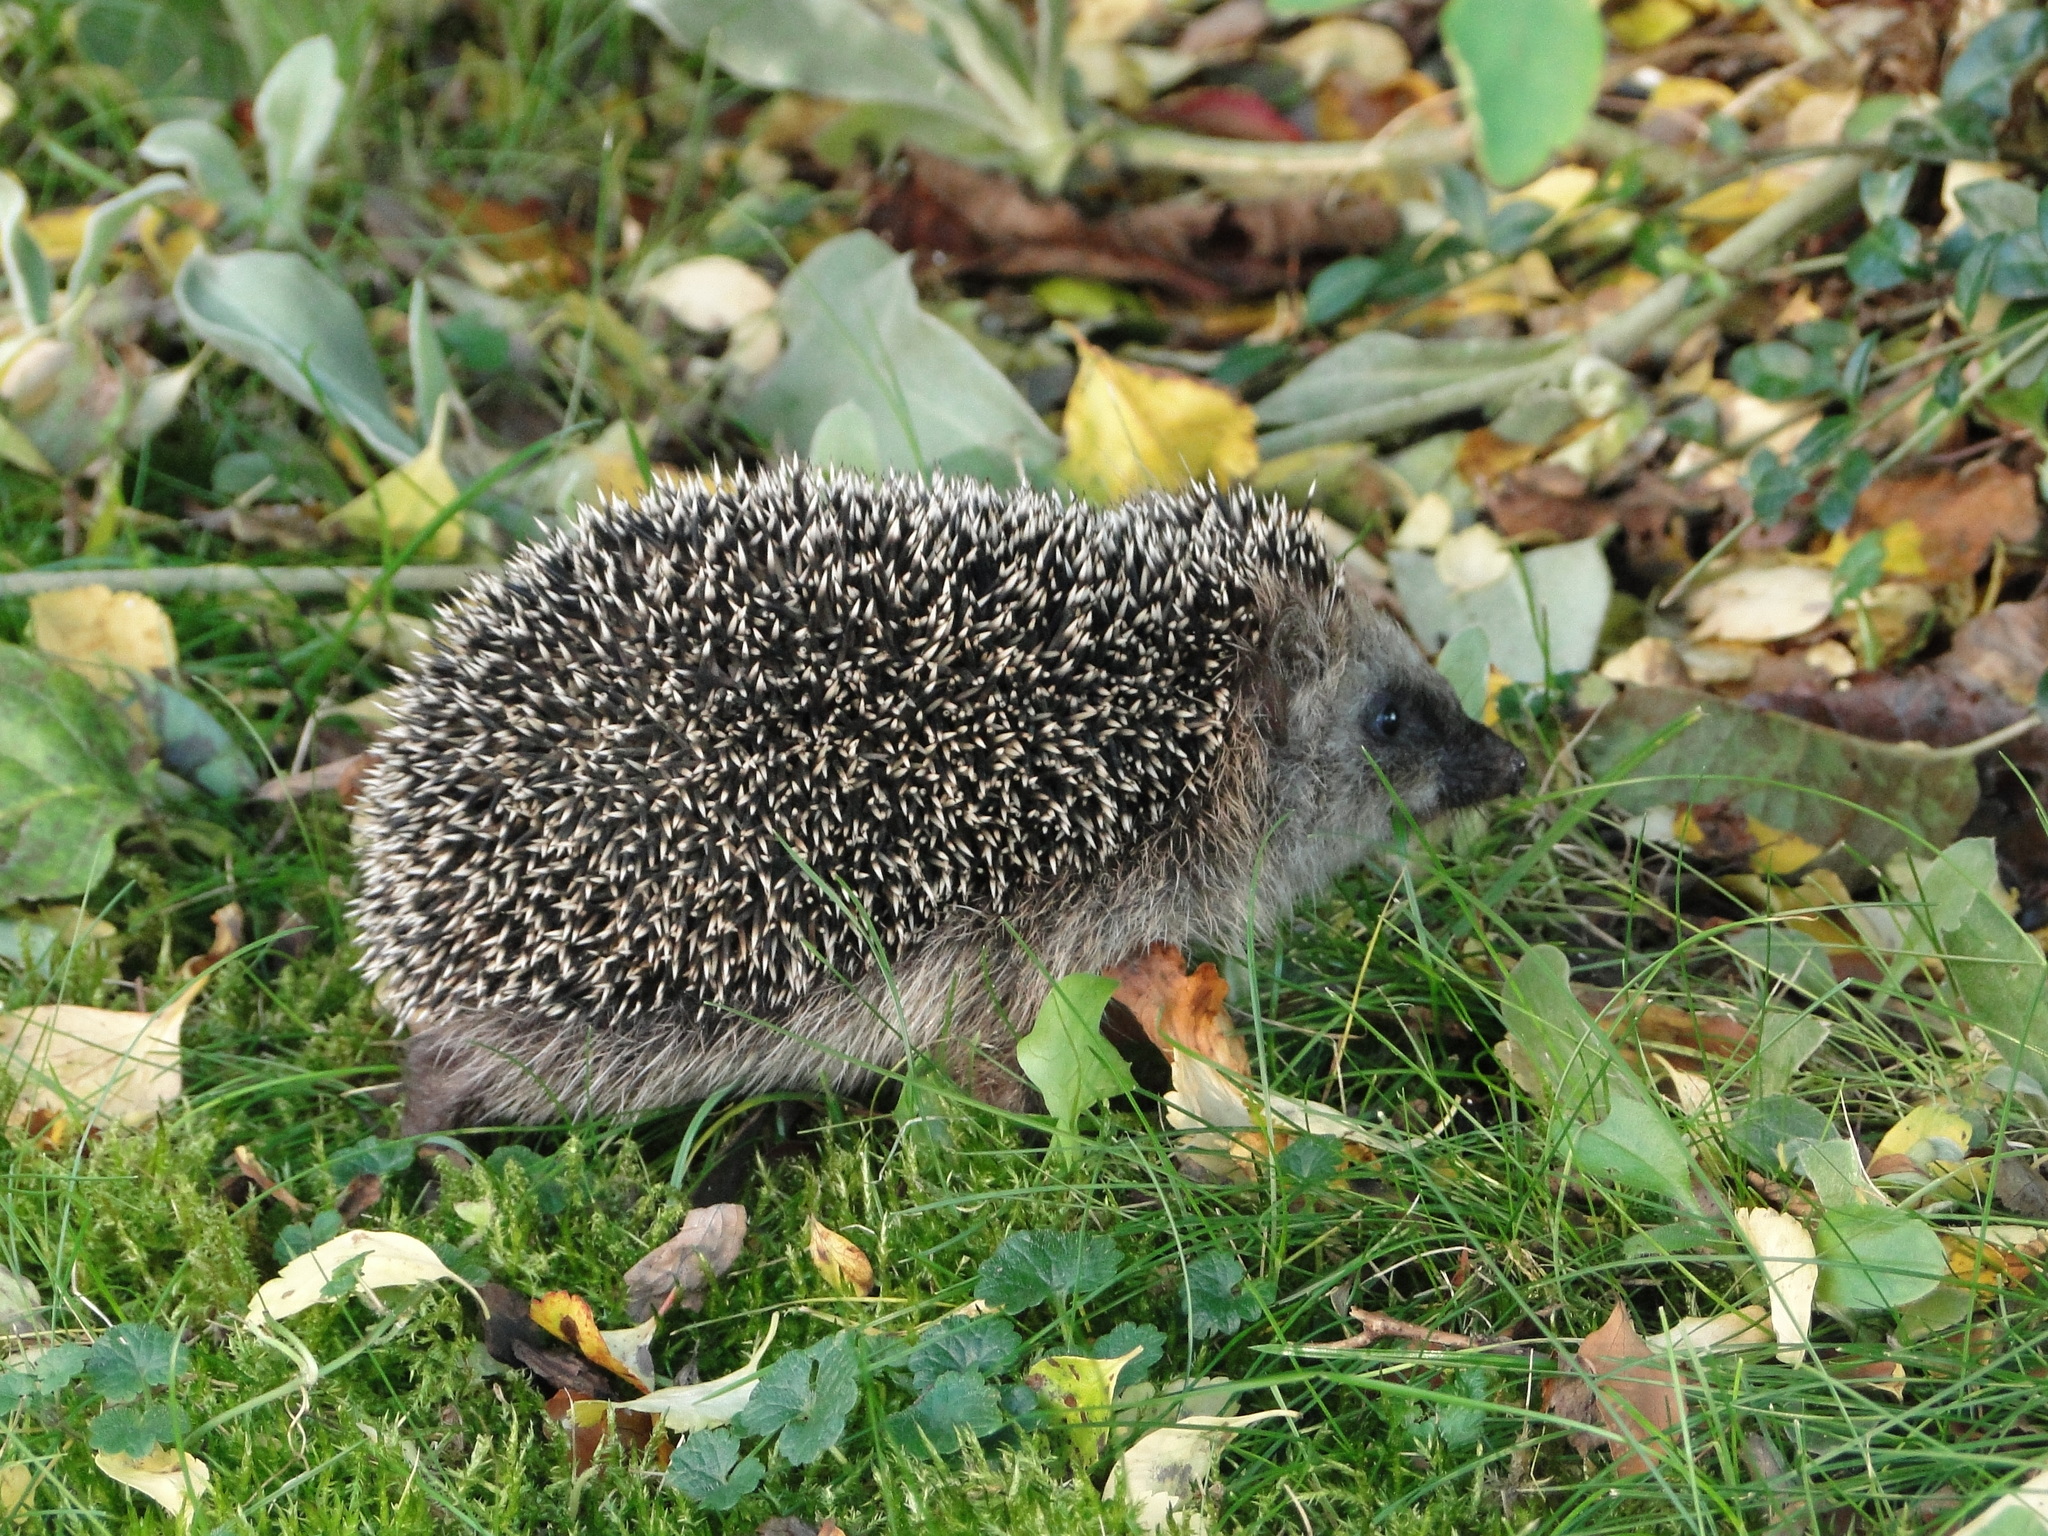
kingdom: Animalia
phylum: Chordata
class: Mammalia
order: Erinaceomorpha
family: Erinaceidae
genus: Erinaceus
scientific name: Erinaceus europaeus
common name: West european hedgehog
